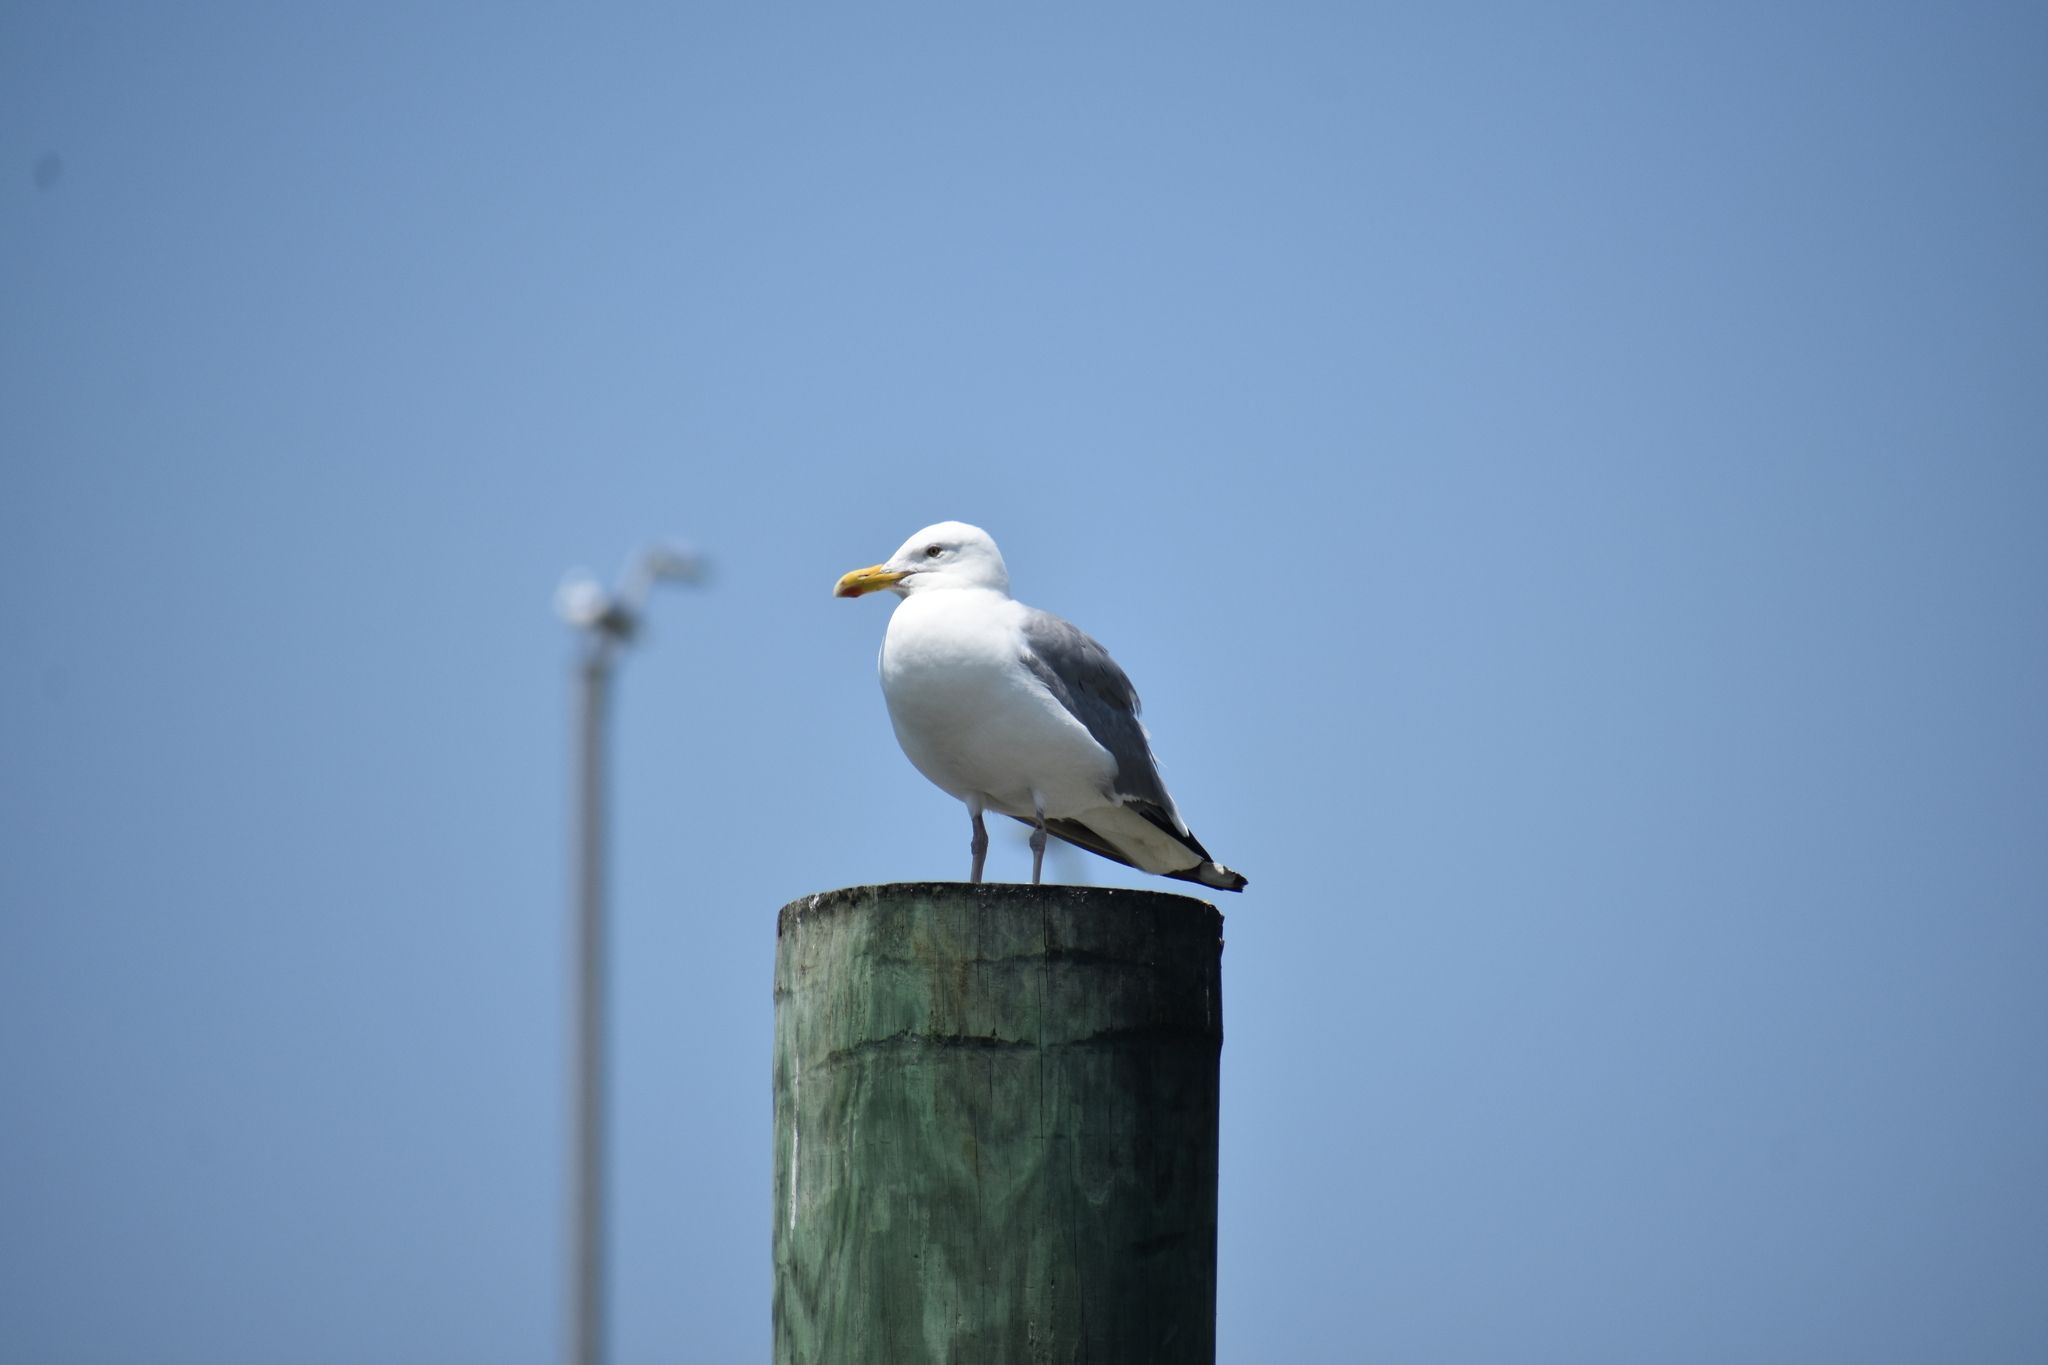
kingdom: Animalia
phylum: Chordata
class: Aves
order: Charadriiformes
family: Laridae
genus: Larus
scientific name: Larus argentatus
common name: Herring gull
